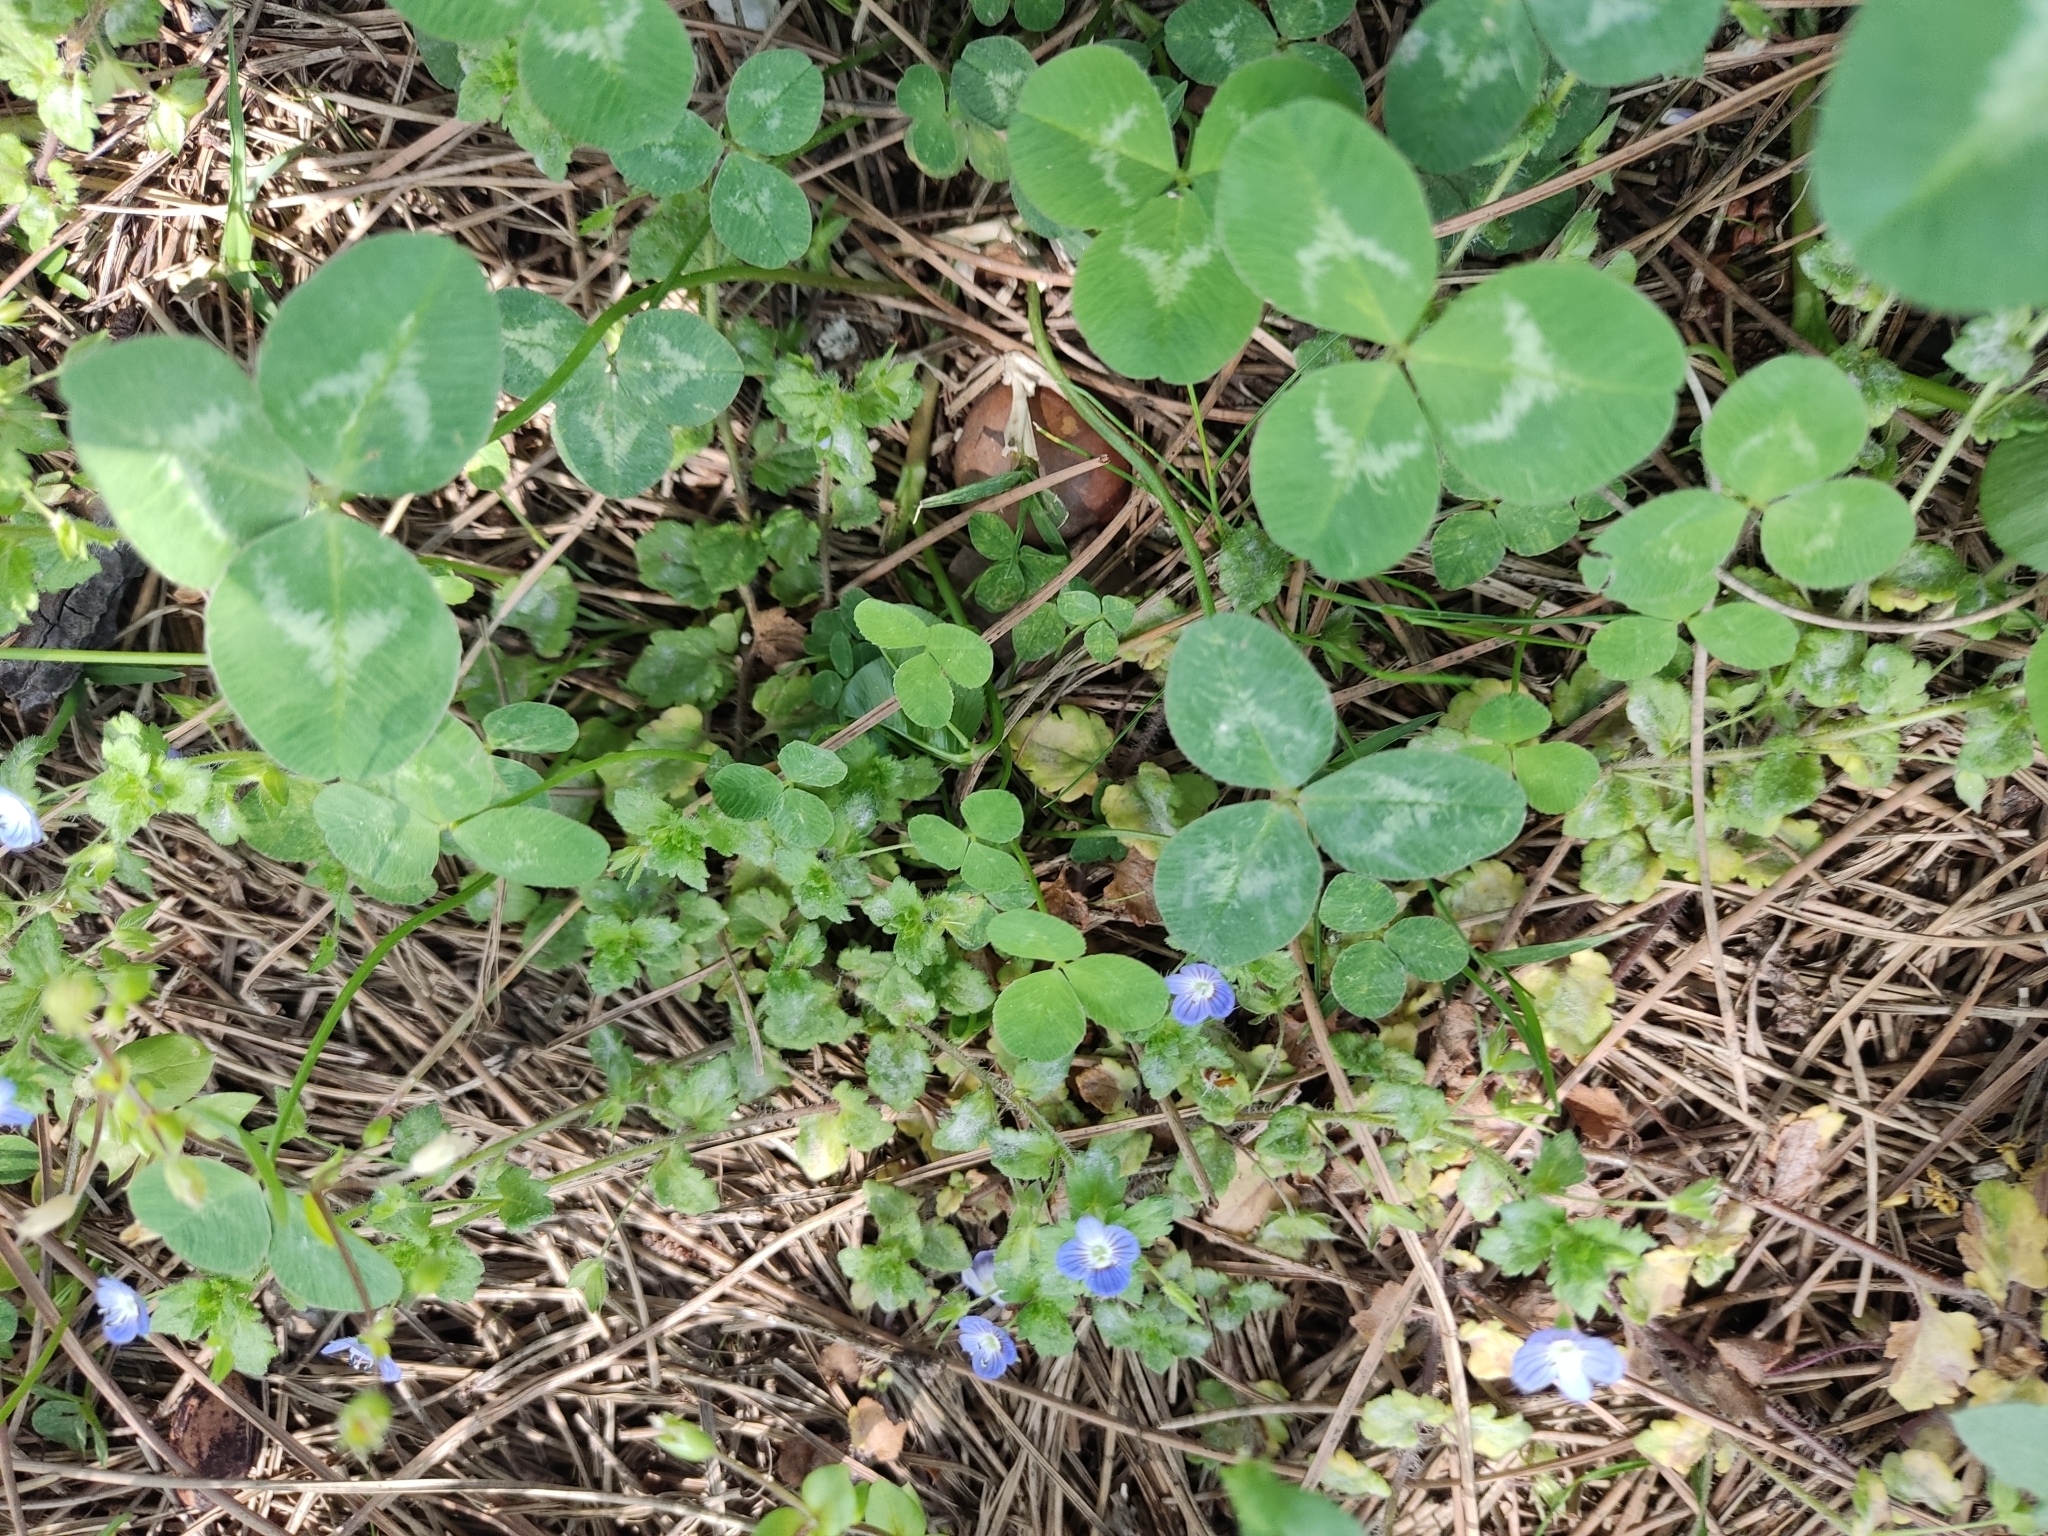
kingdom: Plantae
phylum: Tracheophyta
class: Magnoliopsida
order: Lamiales
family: Plantaginaceae
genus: Veronica
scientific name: Veronica persica
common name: Common field-speedwell
